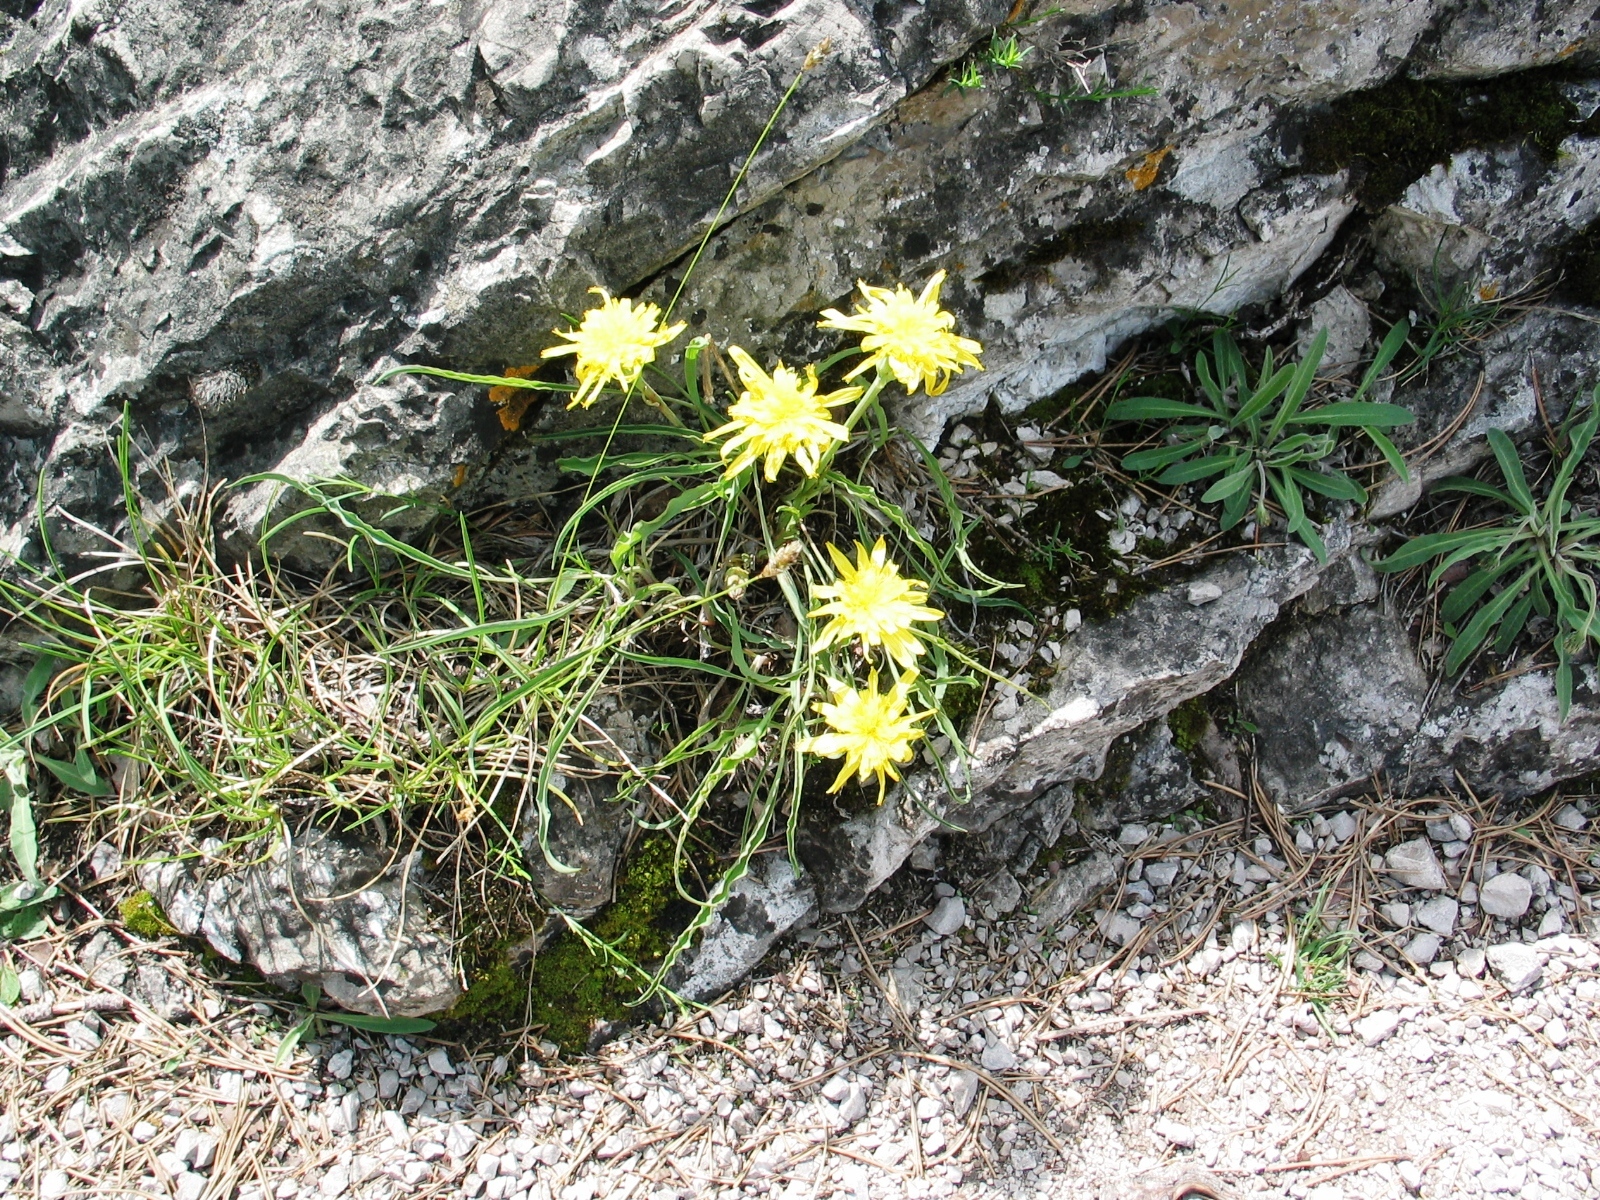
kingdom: Plantae
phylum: Tracheophyta
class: Magnoliopsida
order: Asterales
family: Asteraceae
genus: Takhtajaniantha
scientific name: Takhtajaniantha austriaca
